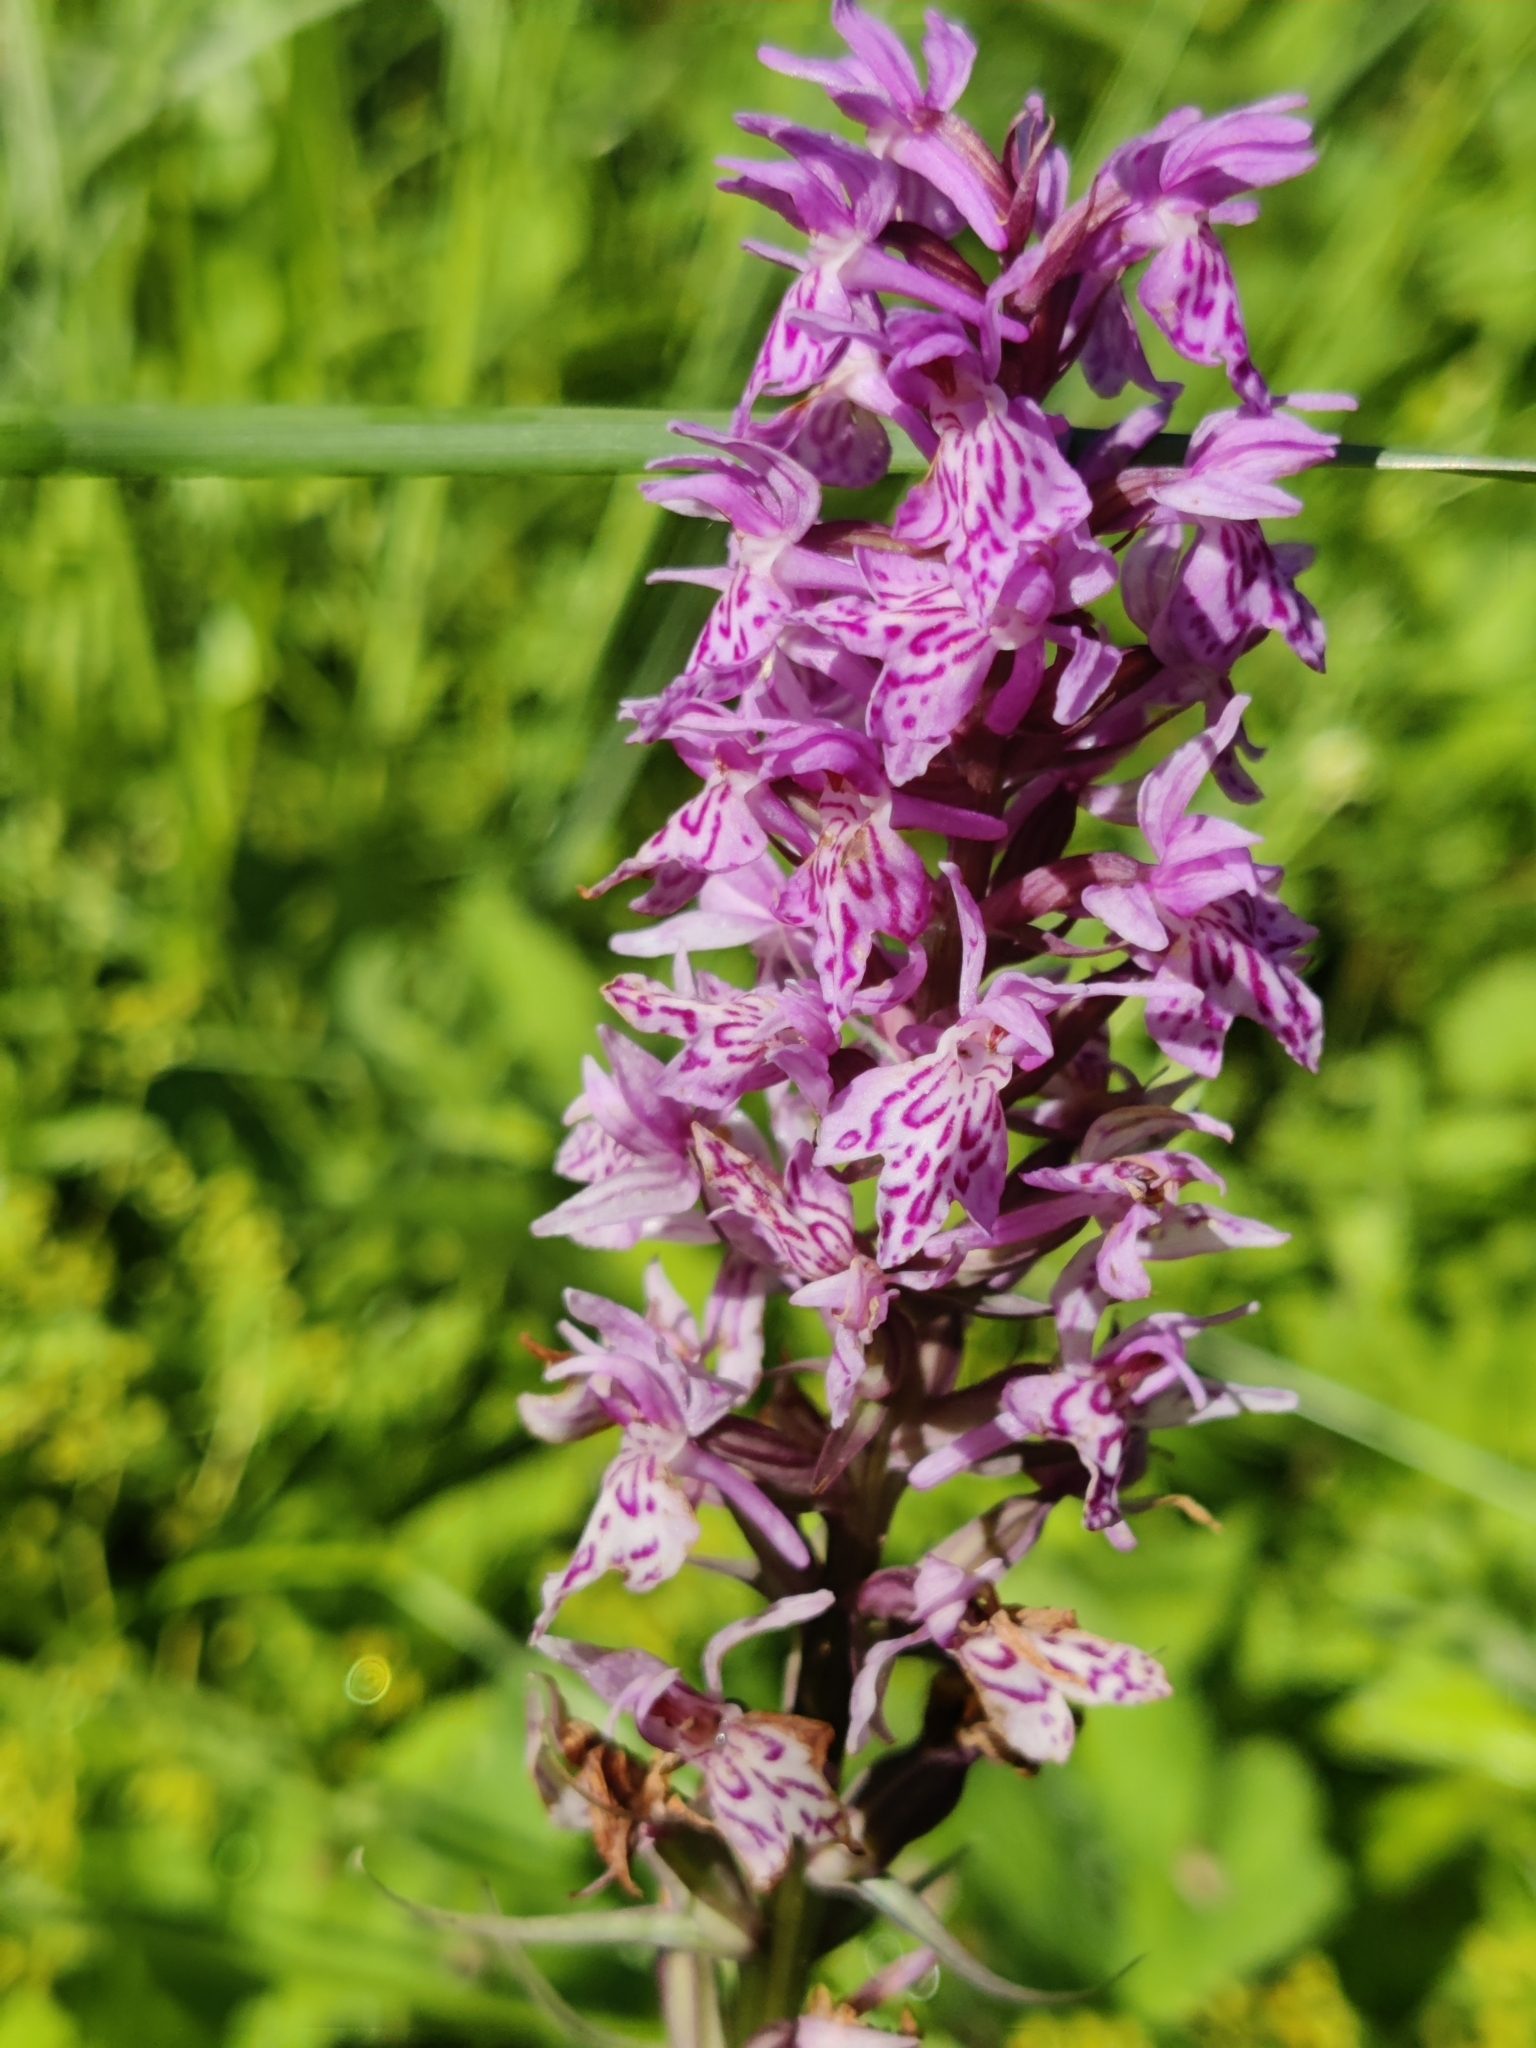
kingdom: Plantae
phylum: Tracheophyta
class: Liliopsida
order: Asparagales
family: Orchidaceae
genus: Dactylorhiza
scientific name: Dactylorhiza maculata
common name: Heath spotted-orchid
